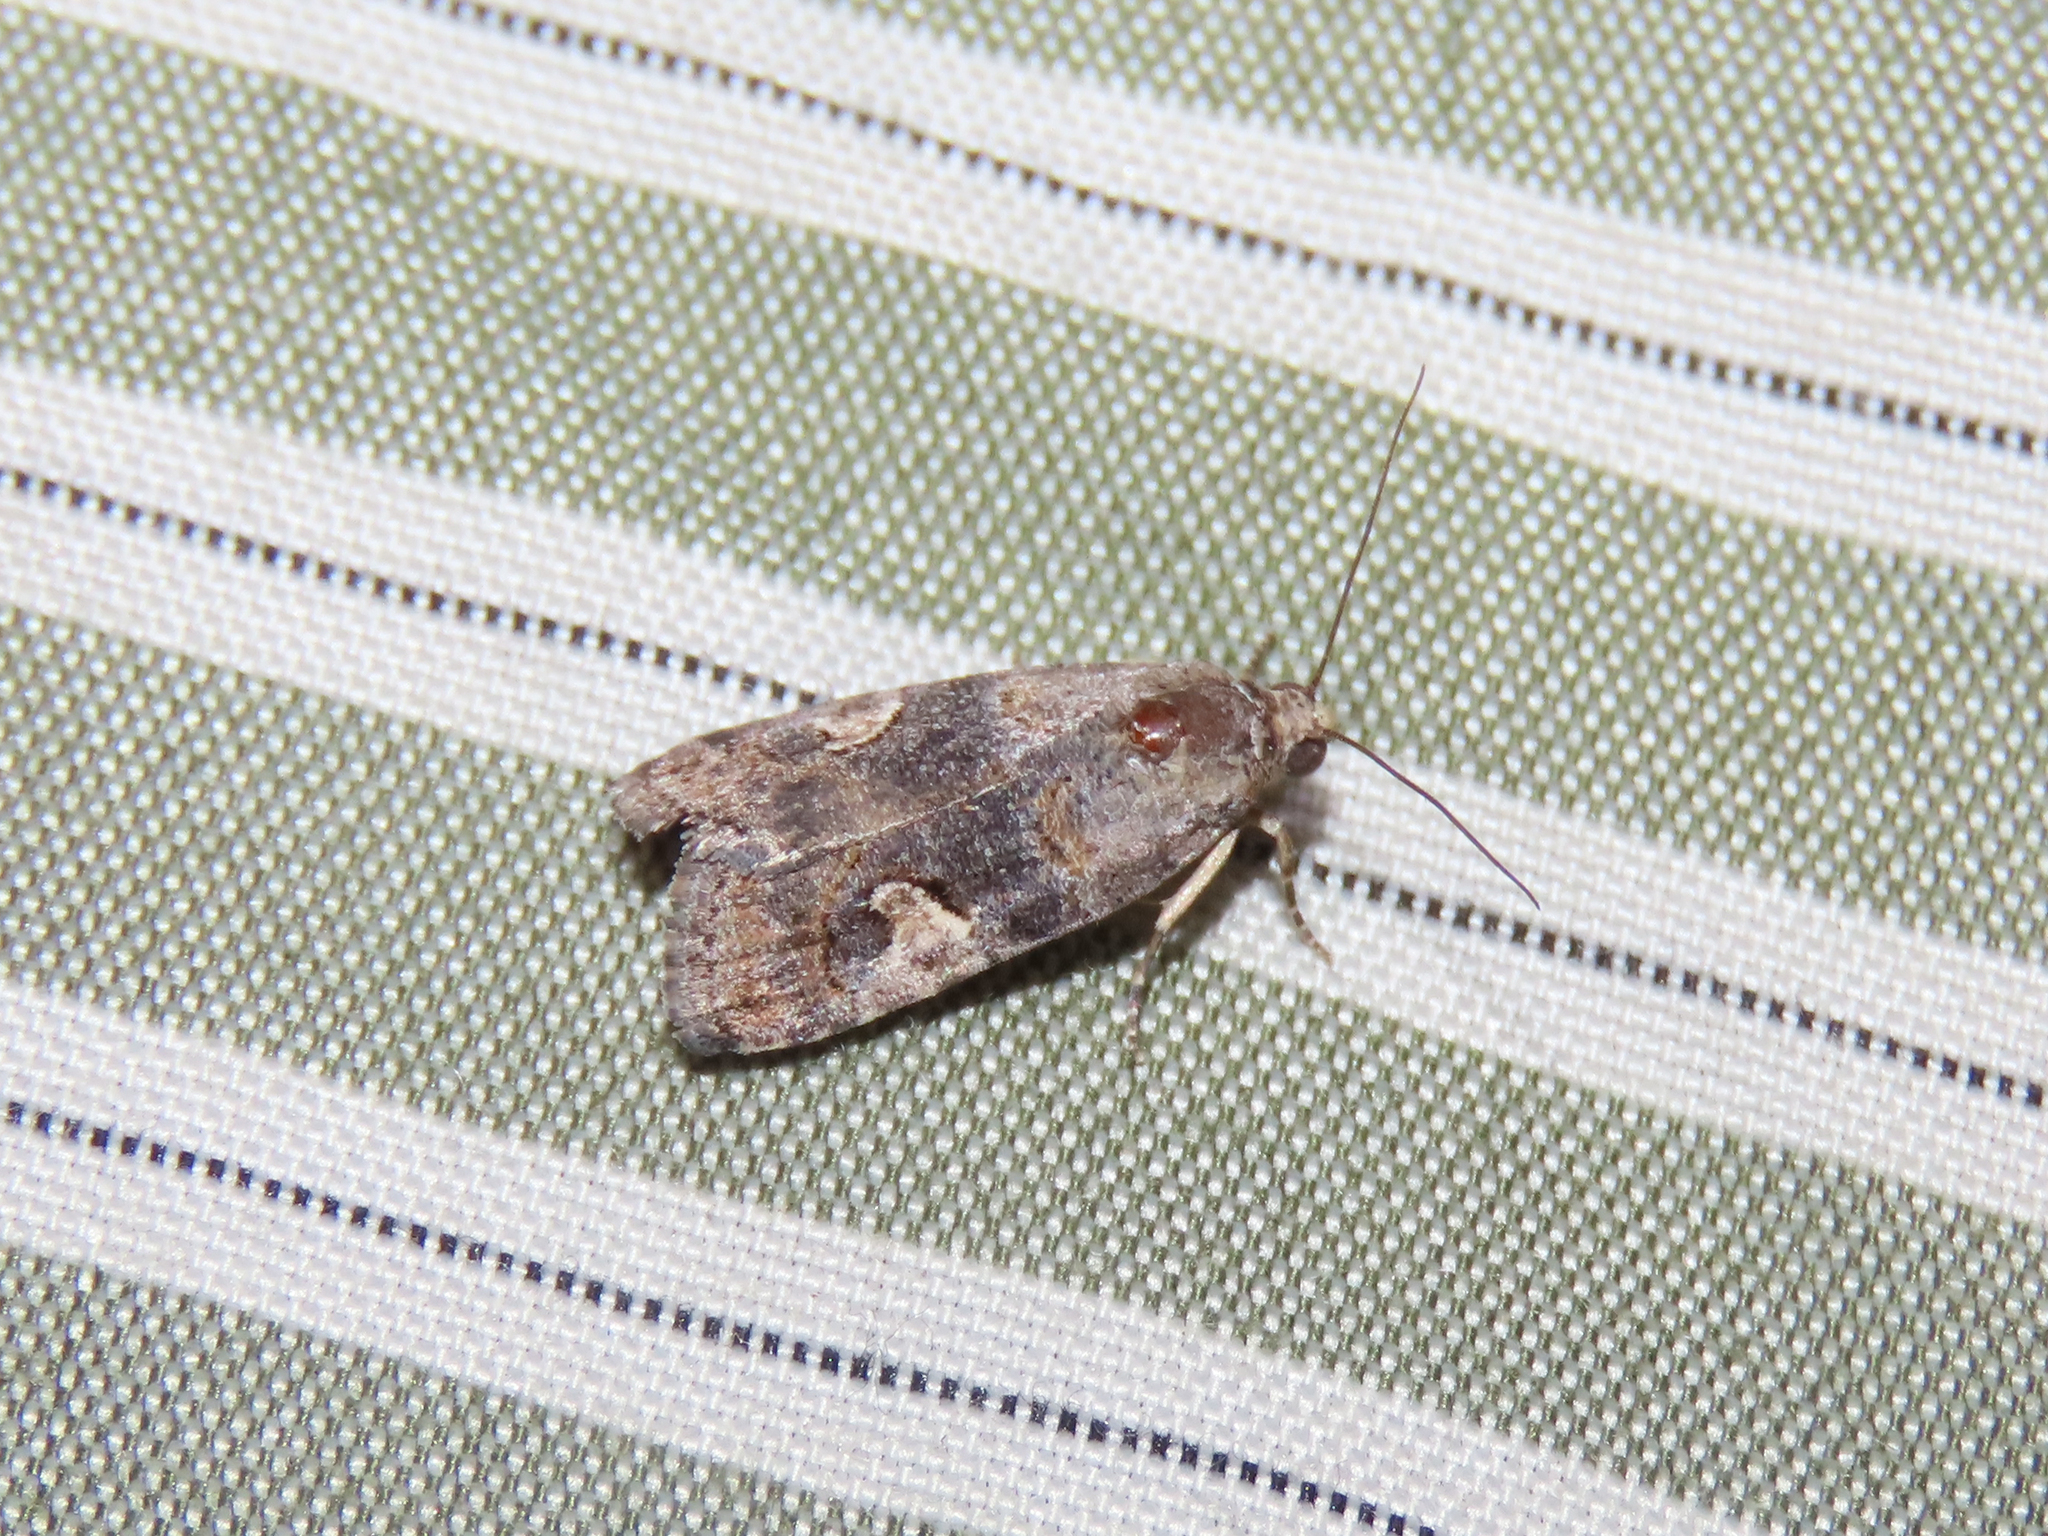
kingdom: Animalia
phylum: Arthropoda
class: Insecta
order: Lepidoptera
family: Noctuidae
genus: Metaponpneumata
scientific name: Metaponpneumata rogenhoferi
